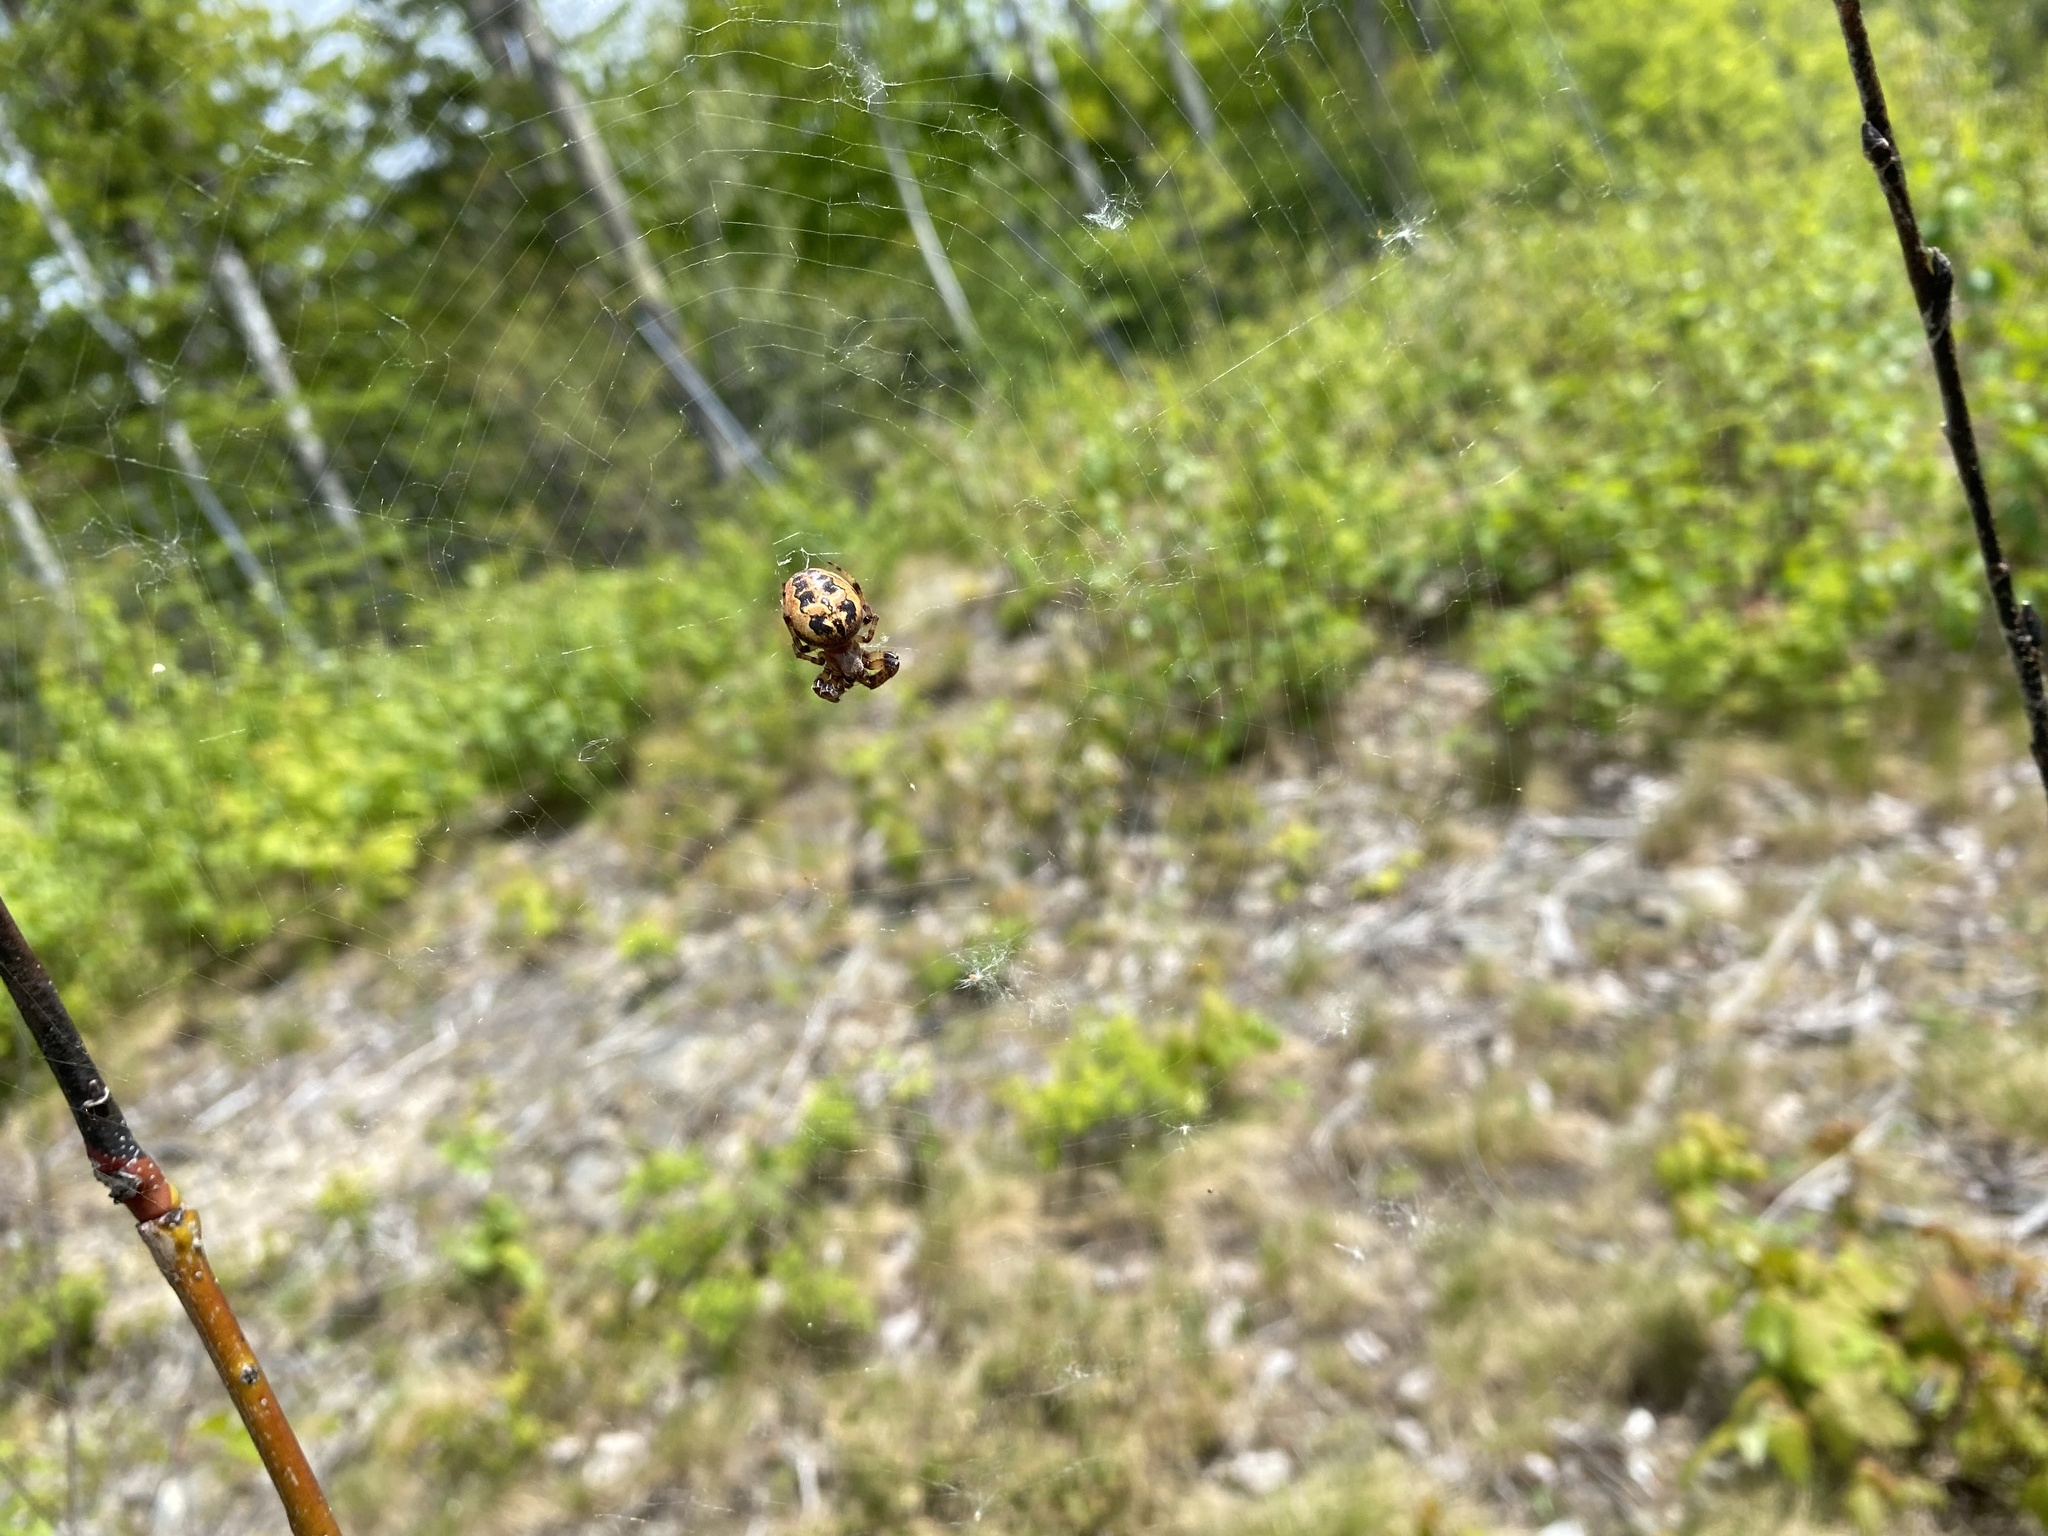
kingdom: Animalia
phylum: Arthropoda
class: Arachnida
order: Araneae
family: Araneidae
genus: Larinioides
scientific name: Larinioides cornutus
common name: Furrow orbweaver
